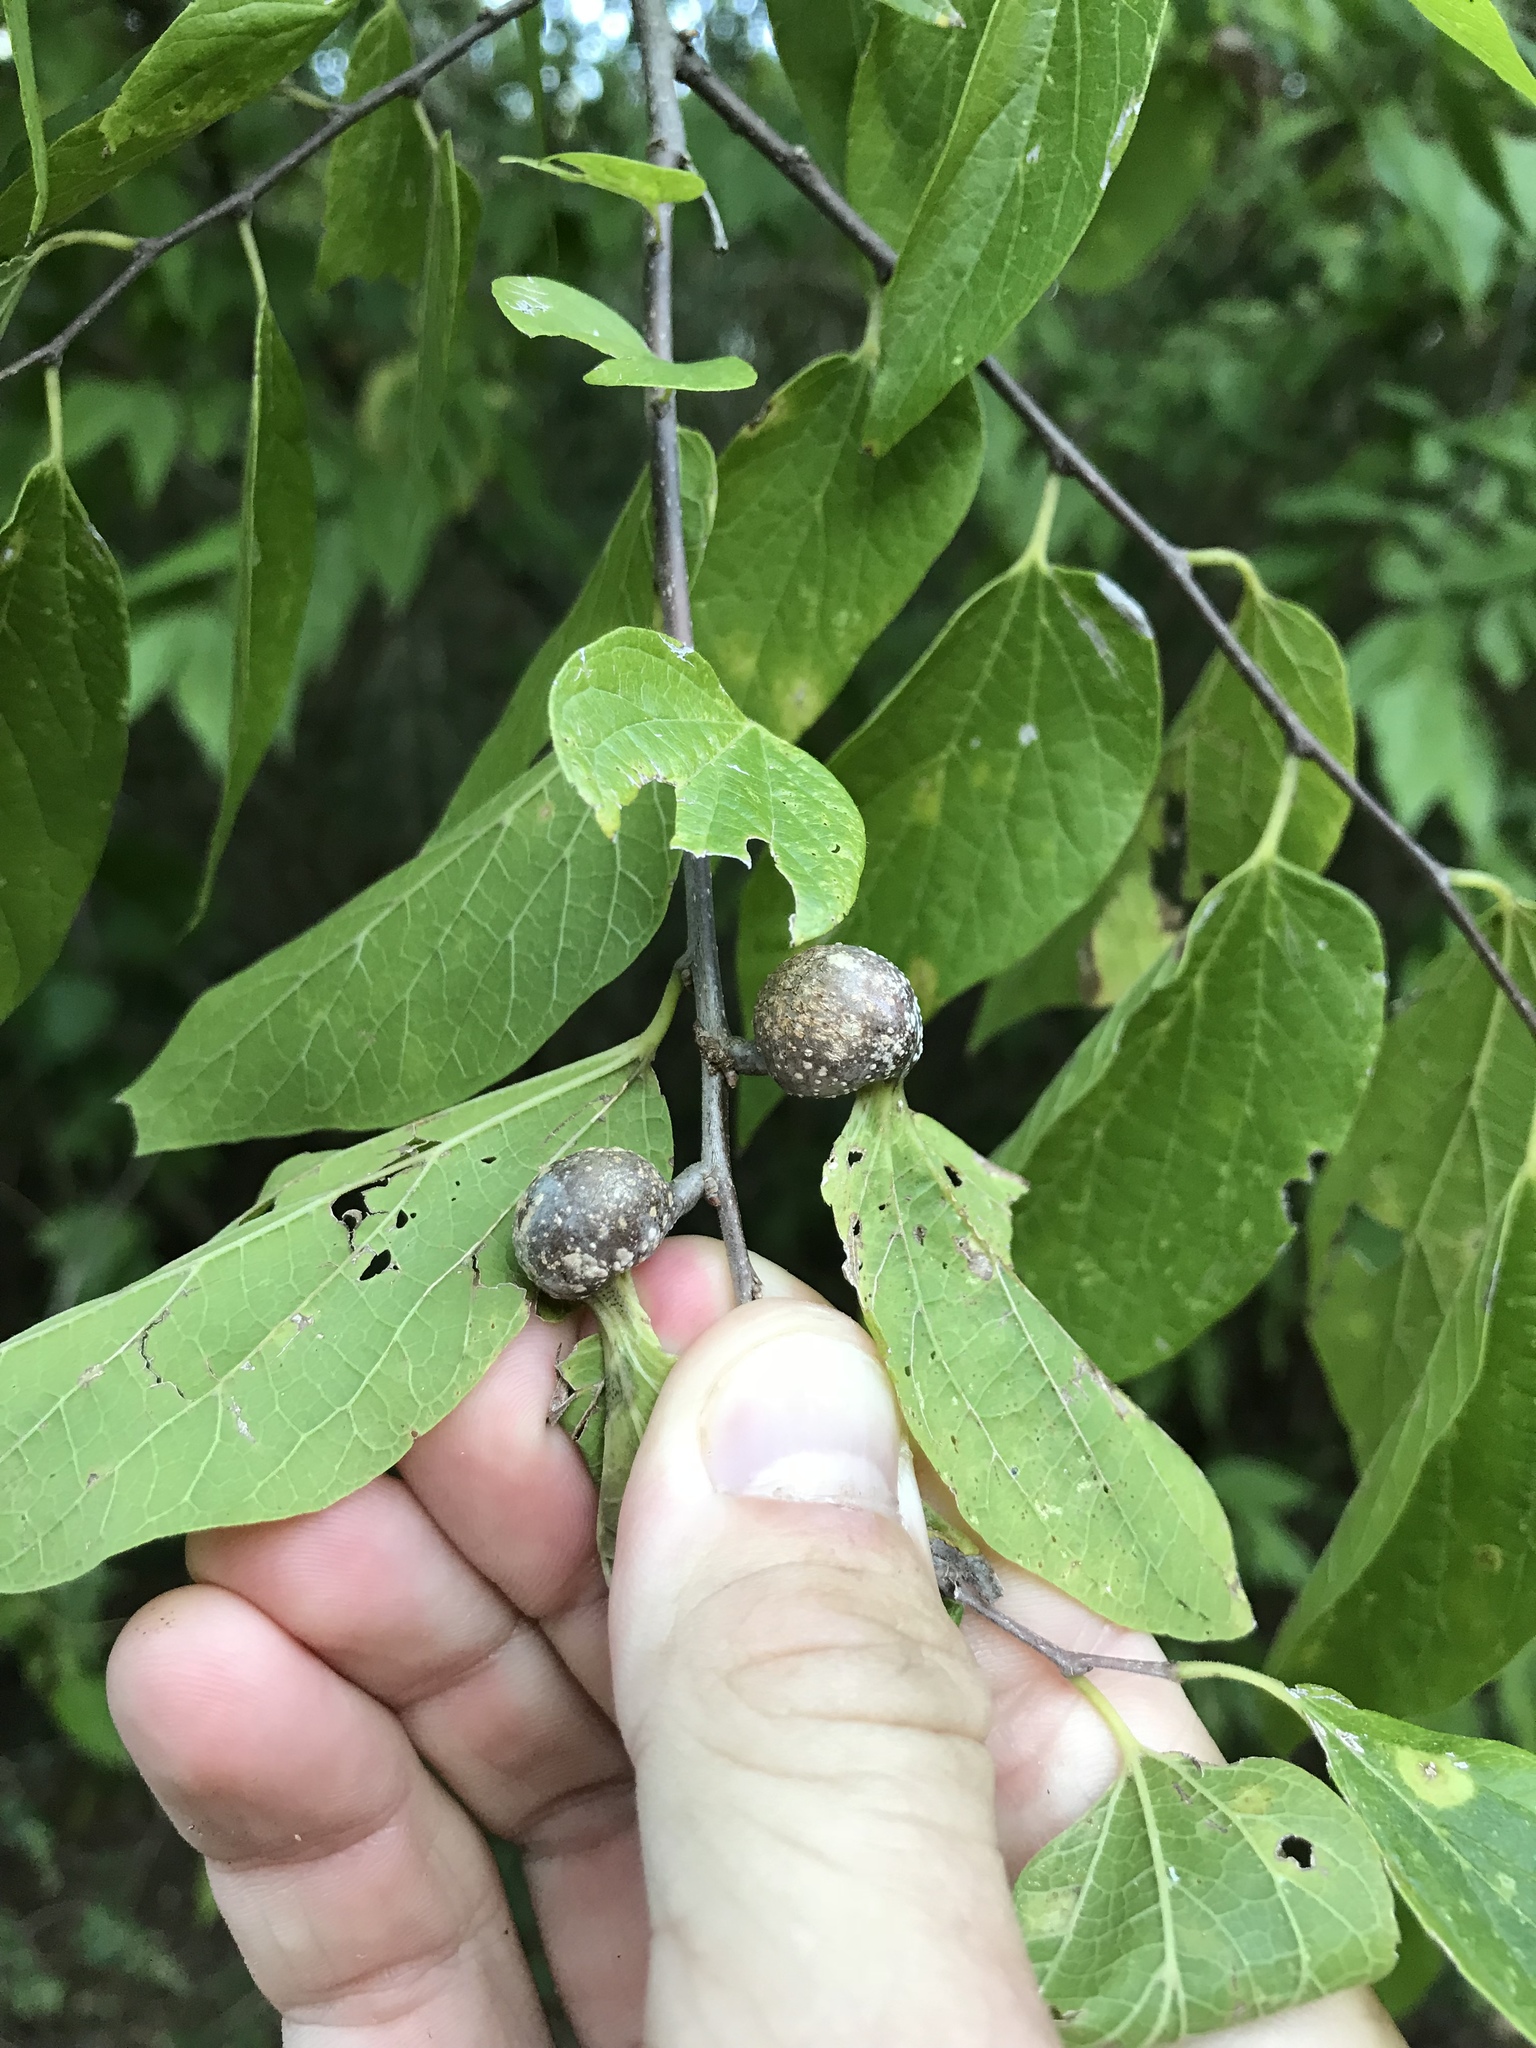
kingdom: Animalia
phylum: Arthropoda
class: Insecta
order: Hemiptera
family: Aphalaridae
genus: Pachypsylla
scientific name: Pachypsylla venusta
